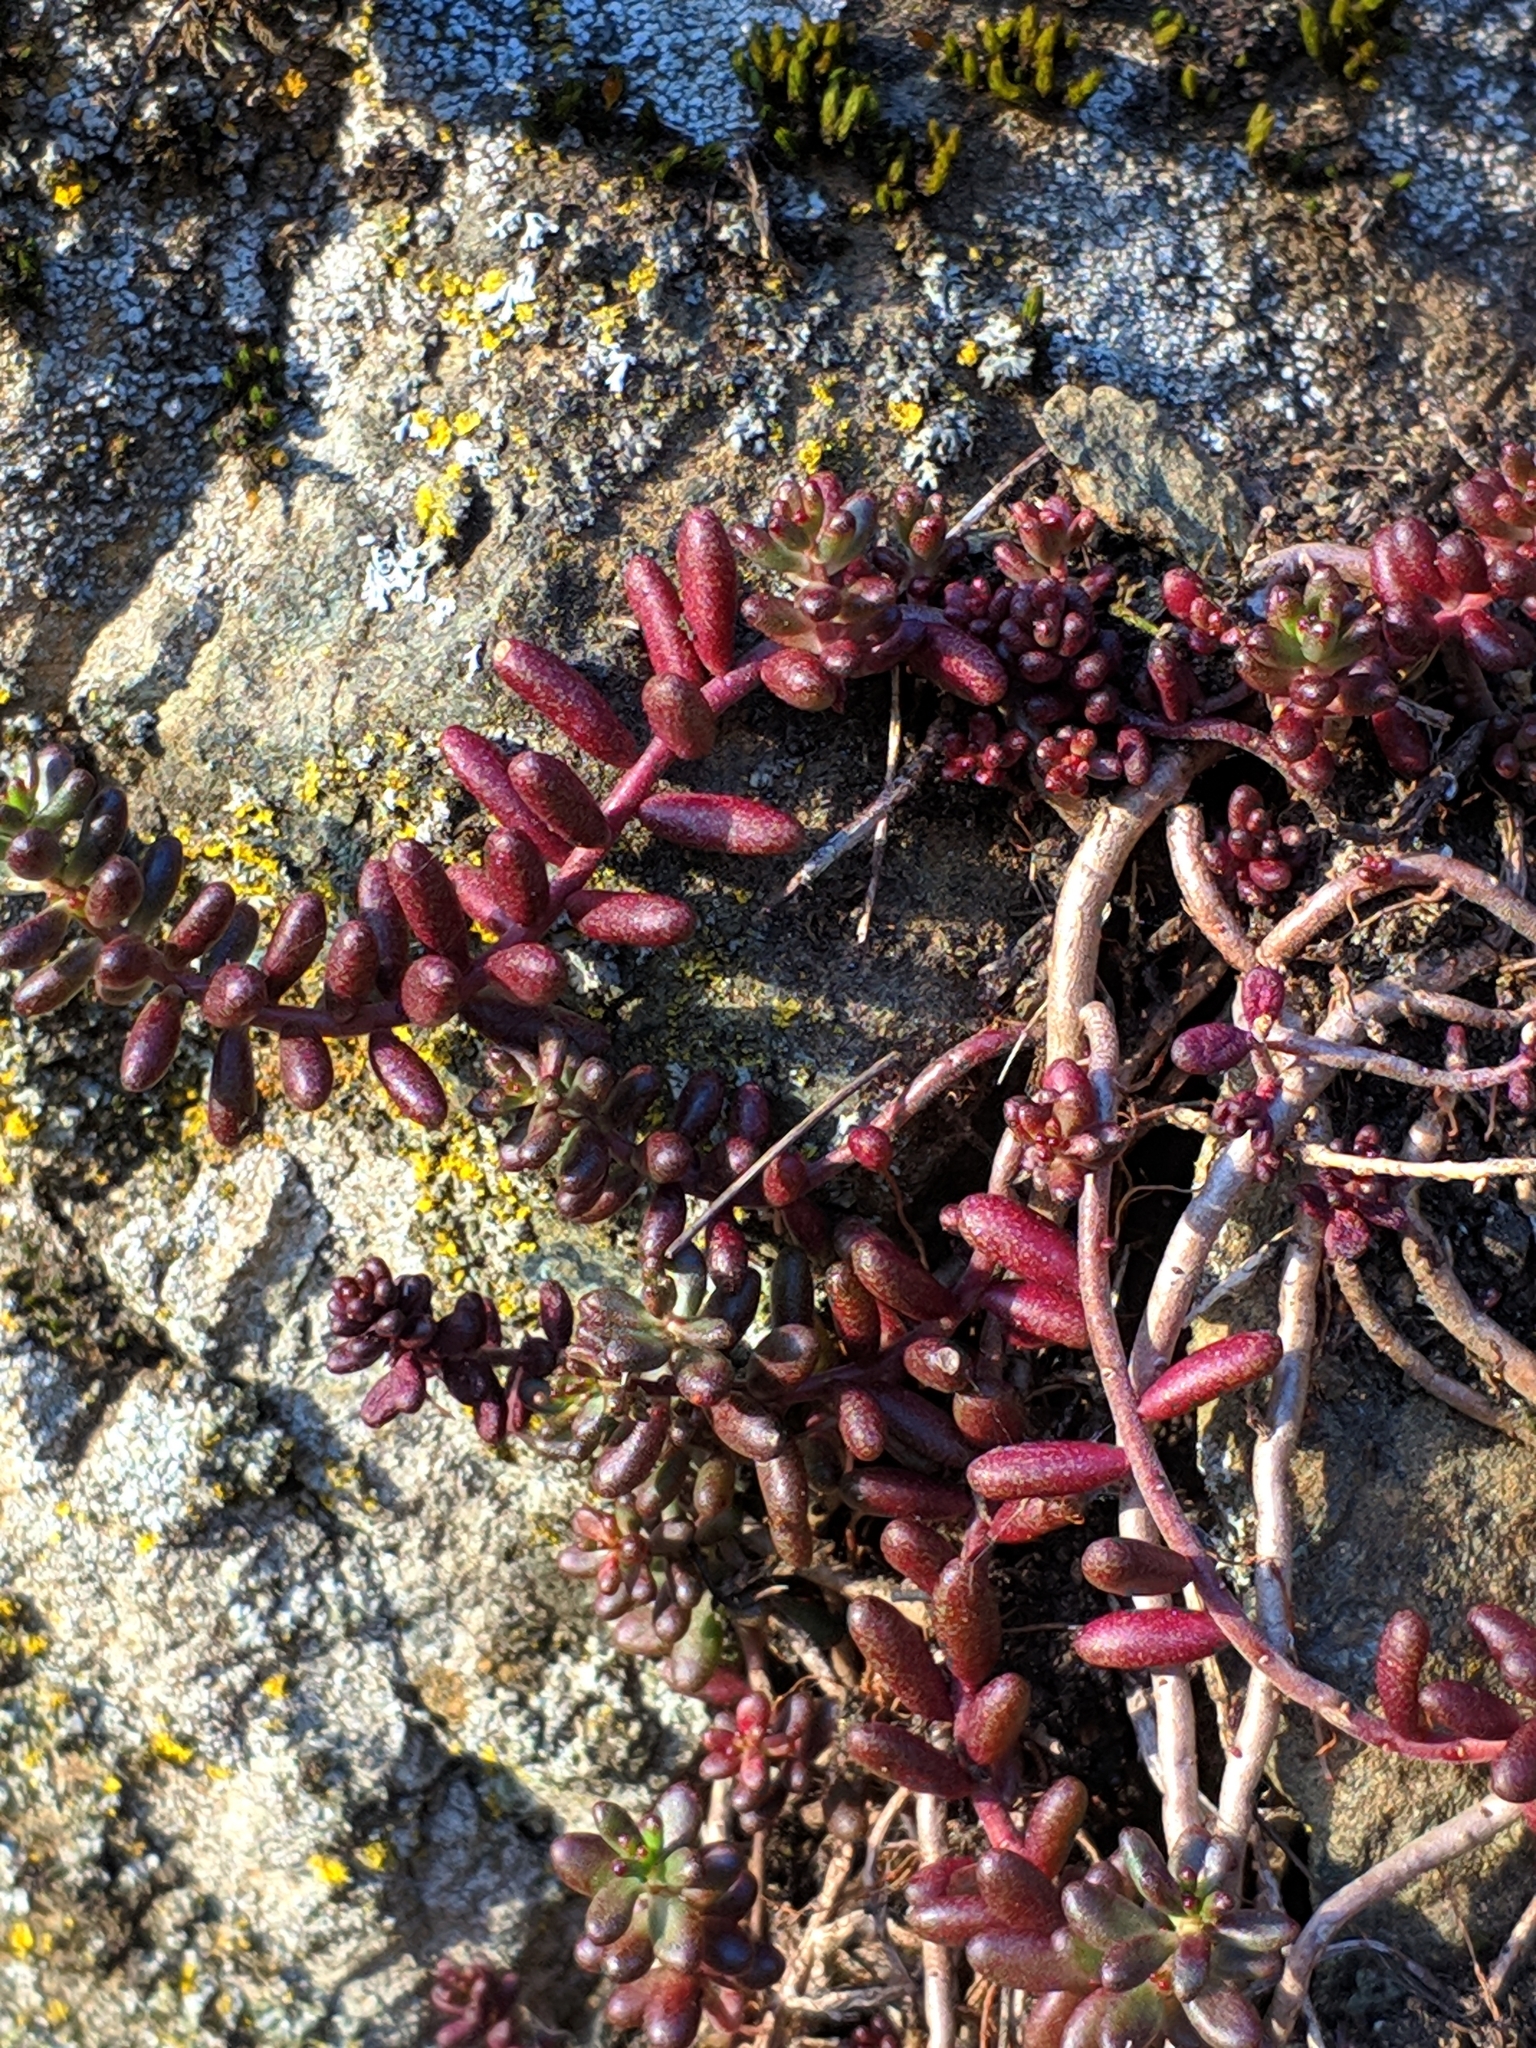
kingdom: Plantae
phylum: Tracheophyta
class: Magnoliopsida
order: Saxifragales
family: Crassulaceae
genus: Sedum
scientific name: Sedum album
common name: White stonecrop
